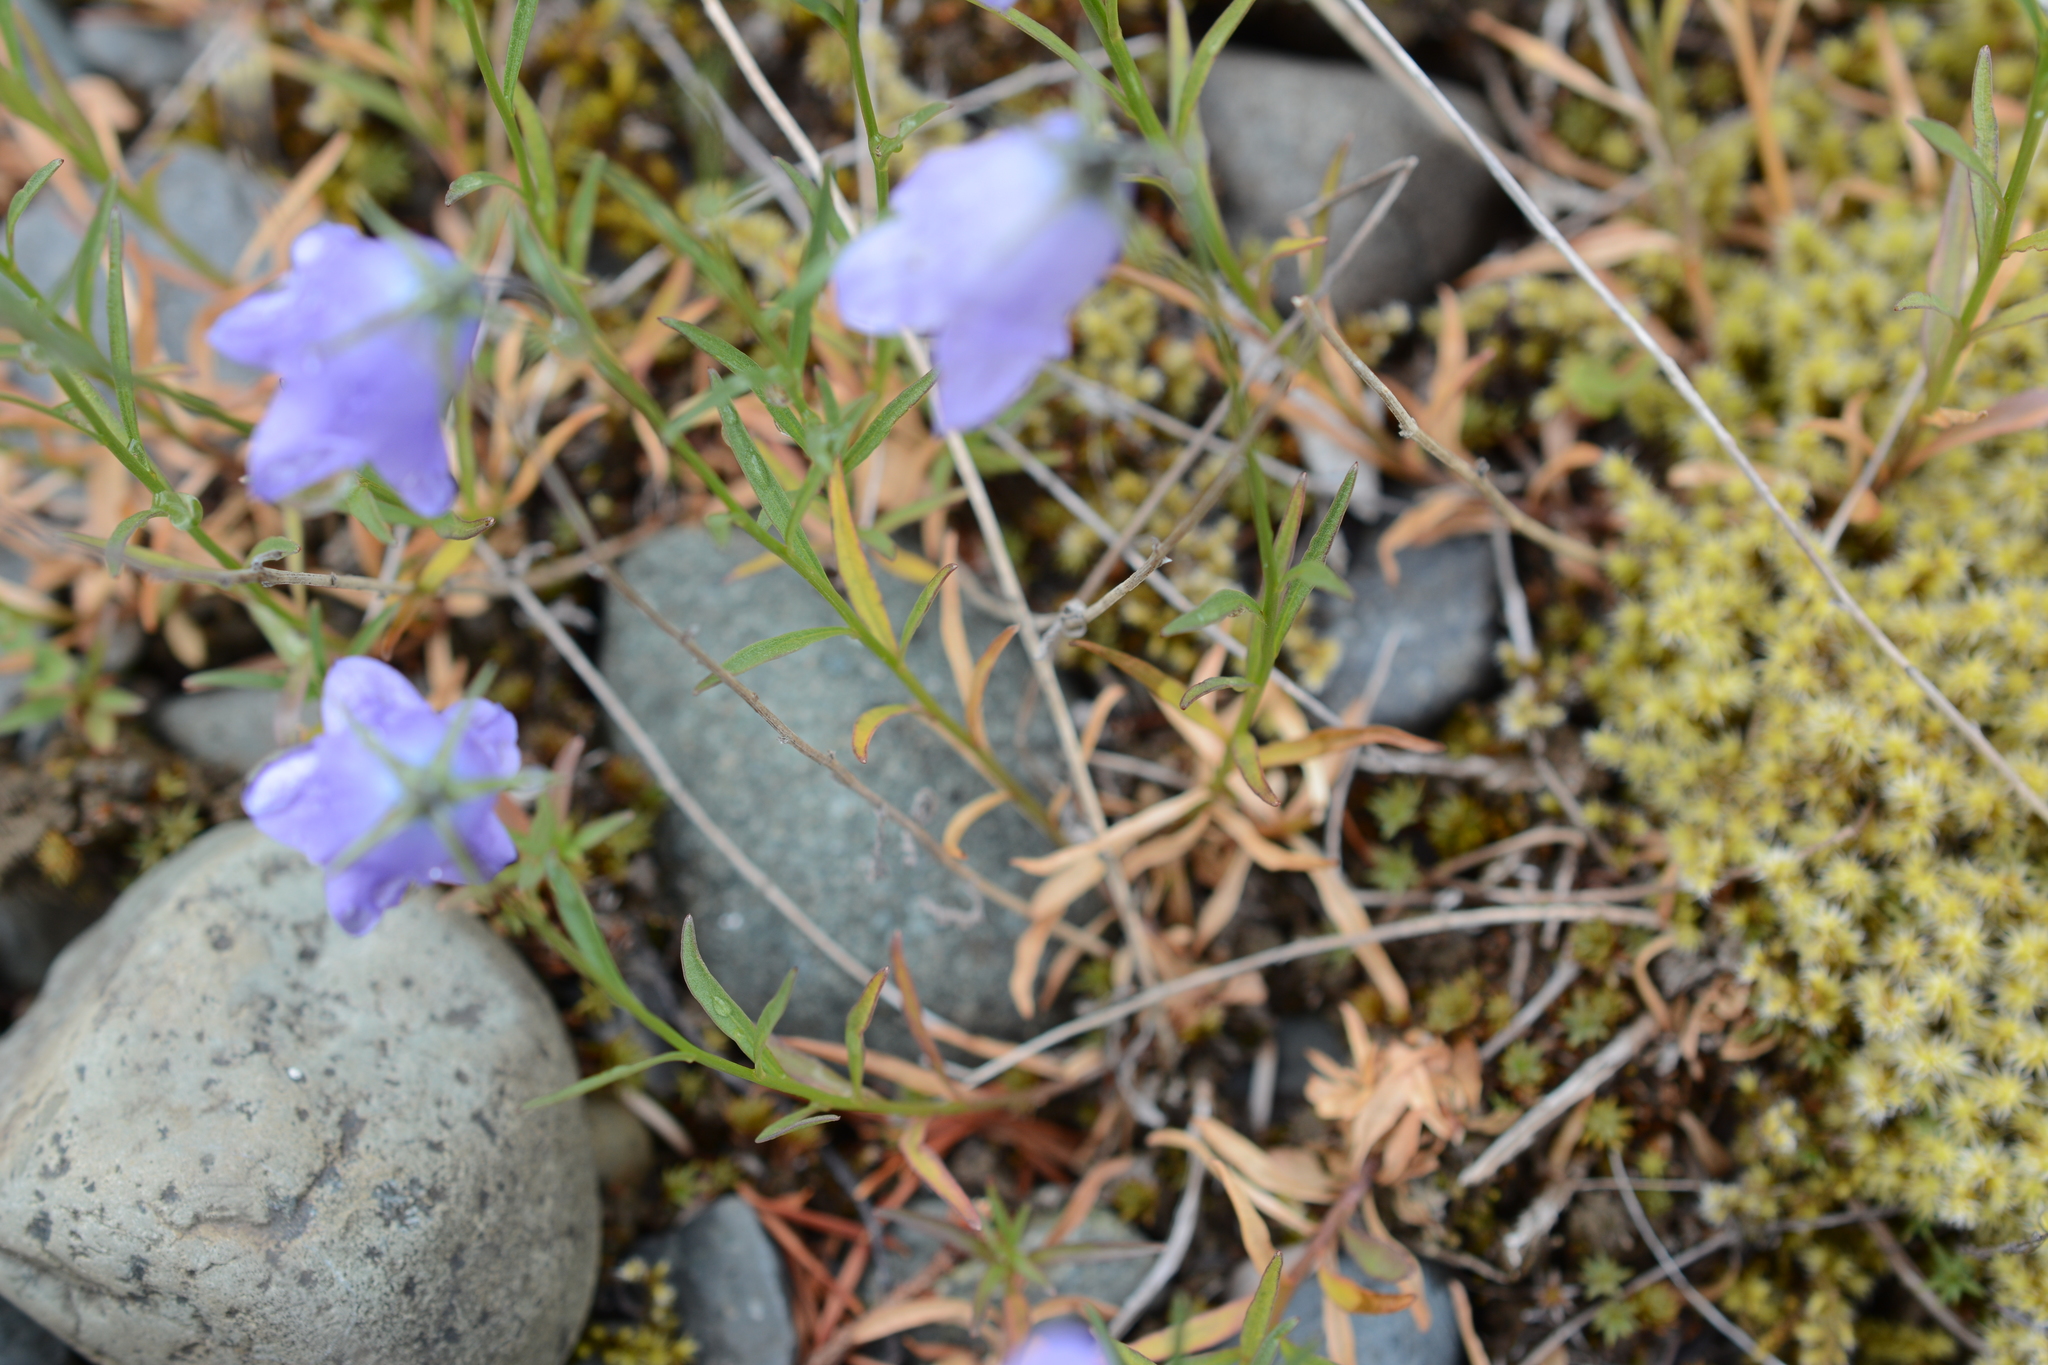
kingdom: Plantae
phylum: Tracheophyta
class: Magnoliopsida
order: Asterales
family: Campanulaceae
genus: Campanula
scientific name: Campanula alaskana
